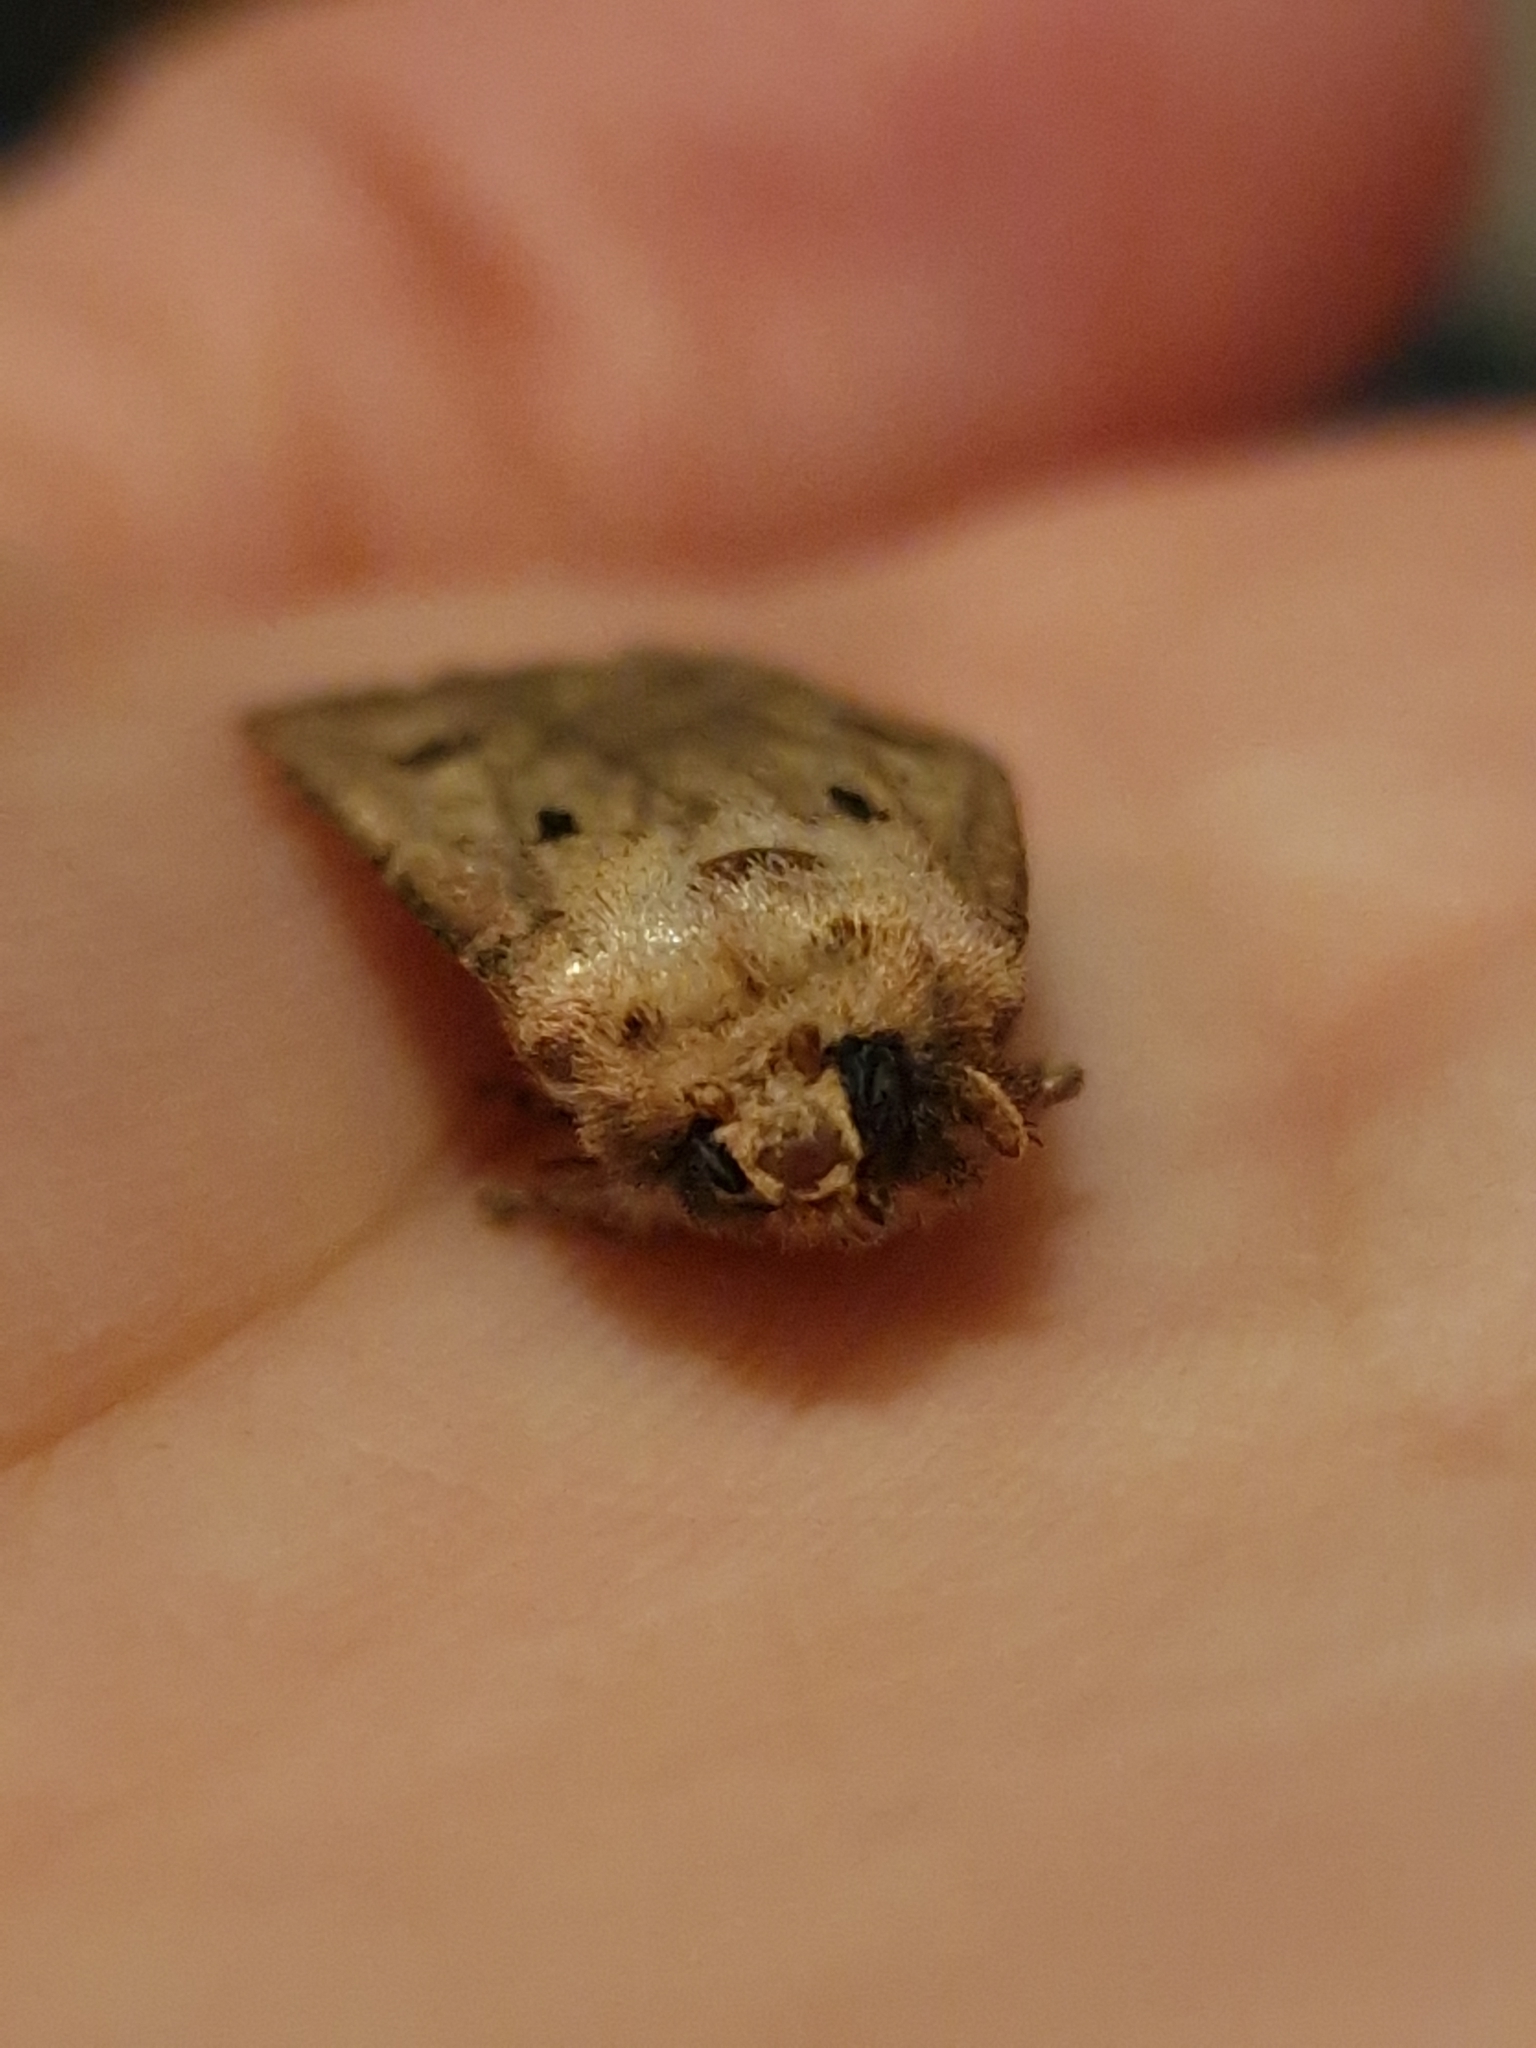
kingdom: Animalia
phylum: Arthropoda
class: Insecta
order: Lepidoptera
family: Noctuidae
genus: Agrotis
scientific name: Agrotis exclamationis
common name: Heart and dart
